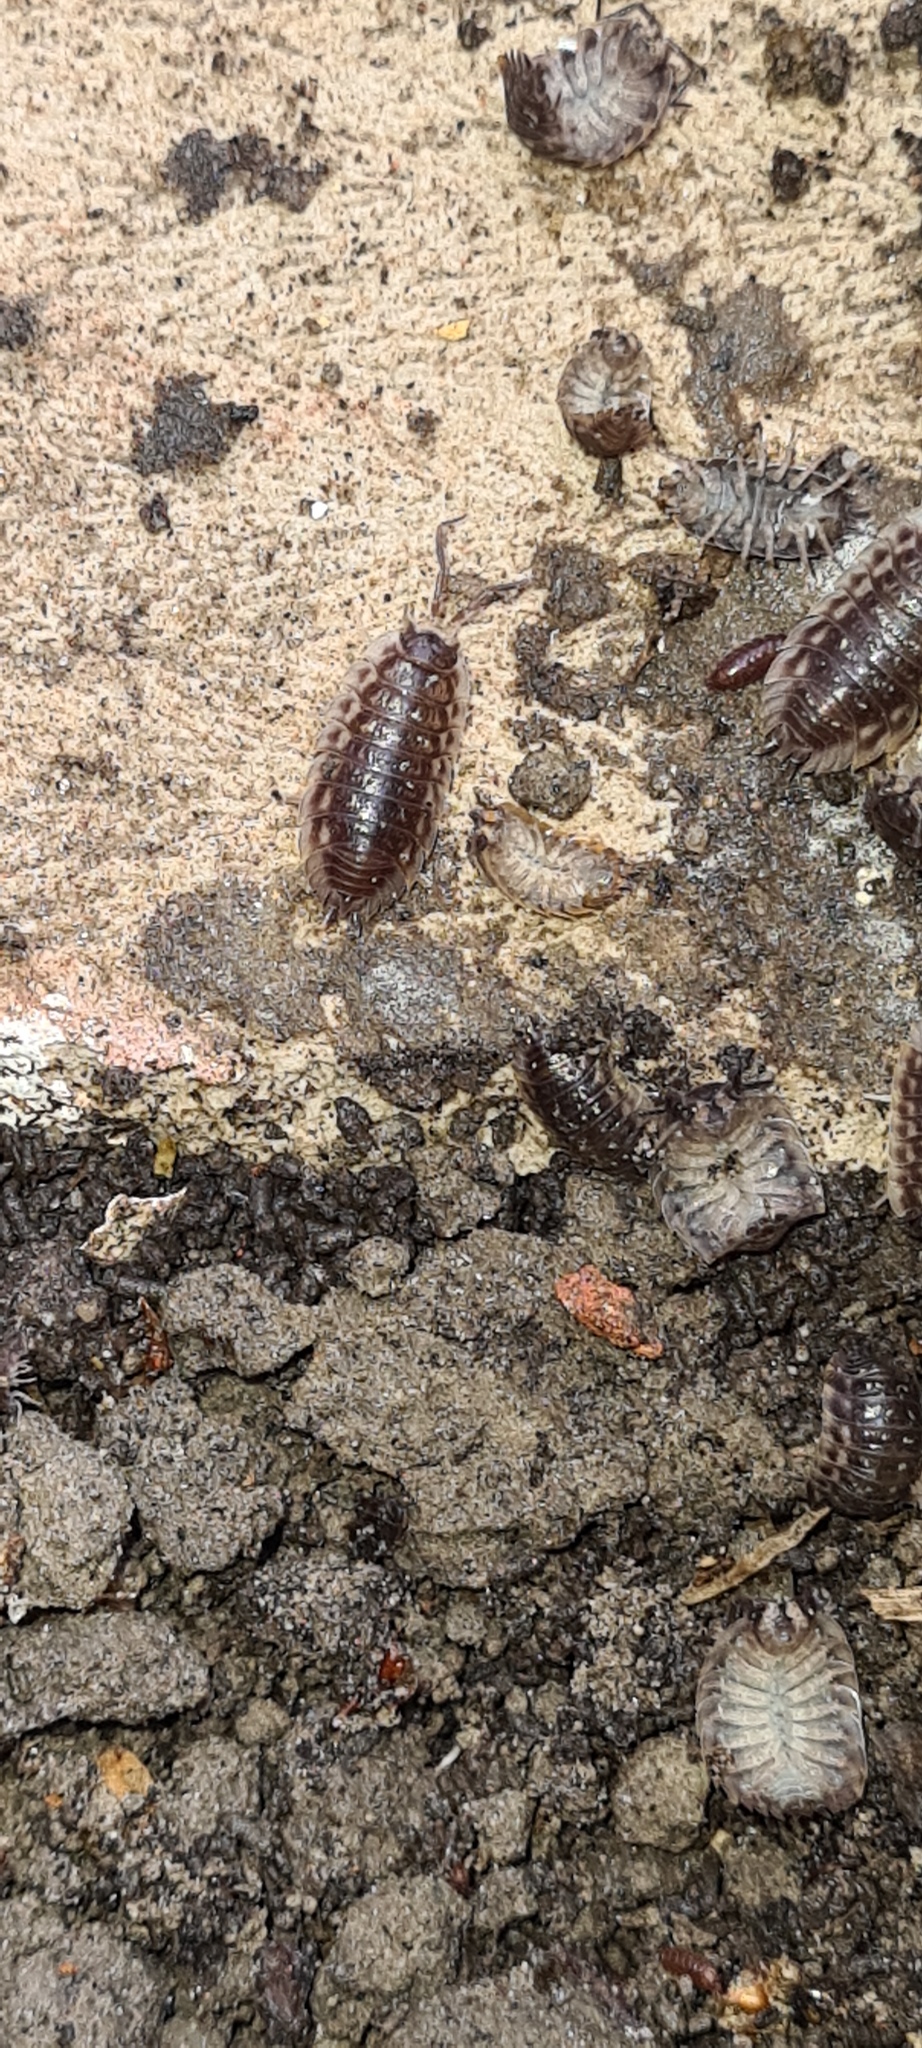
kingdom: Animalia
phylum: Arthropoda
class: Malacostraca
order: Isopoda
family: Oniscidae
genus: Oniscus
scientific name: Oniscus asellus
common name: Common shiny woodlouse
